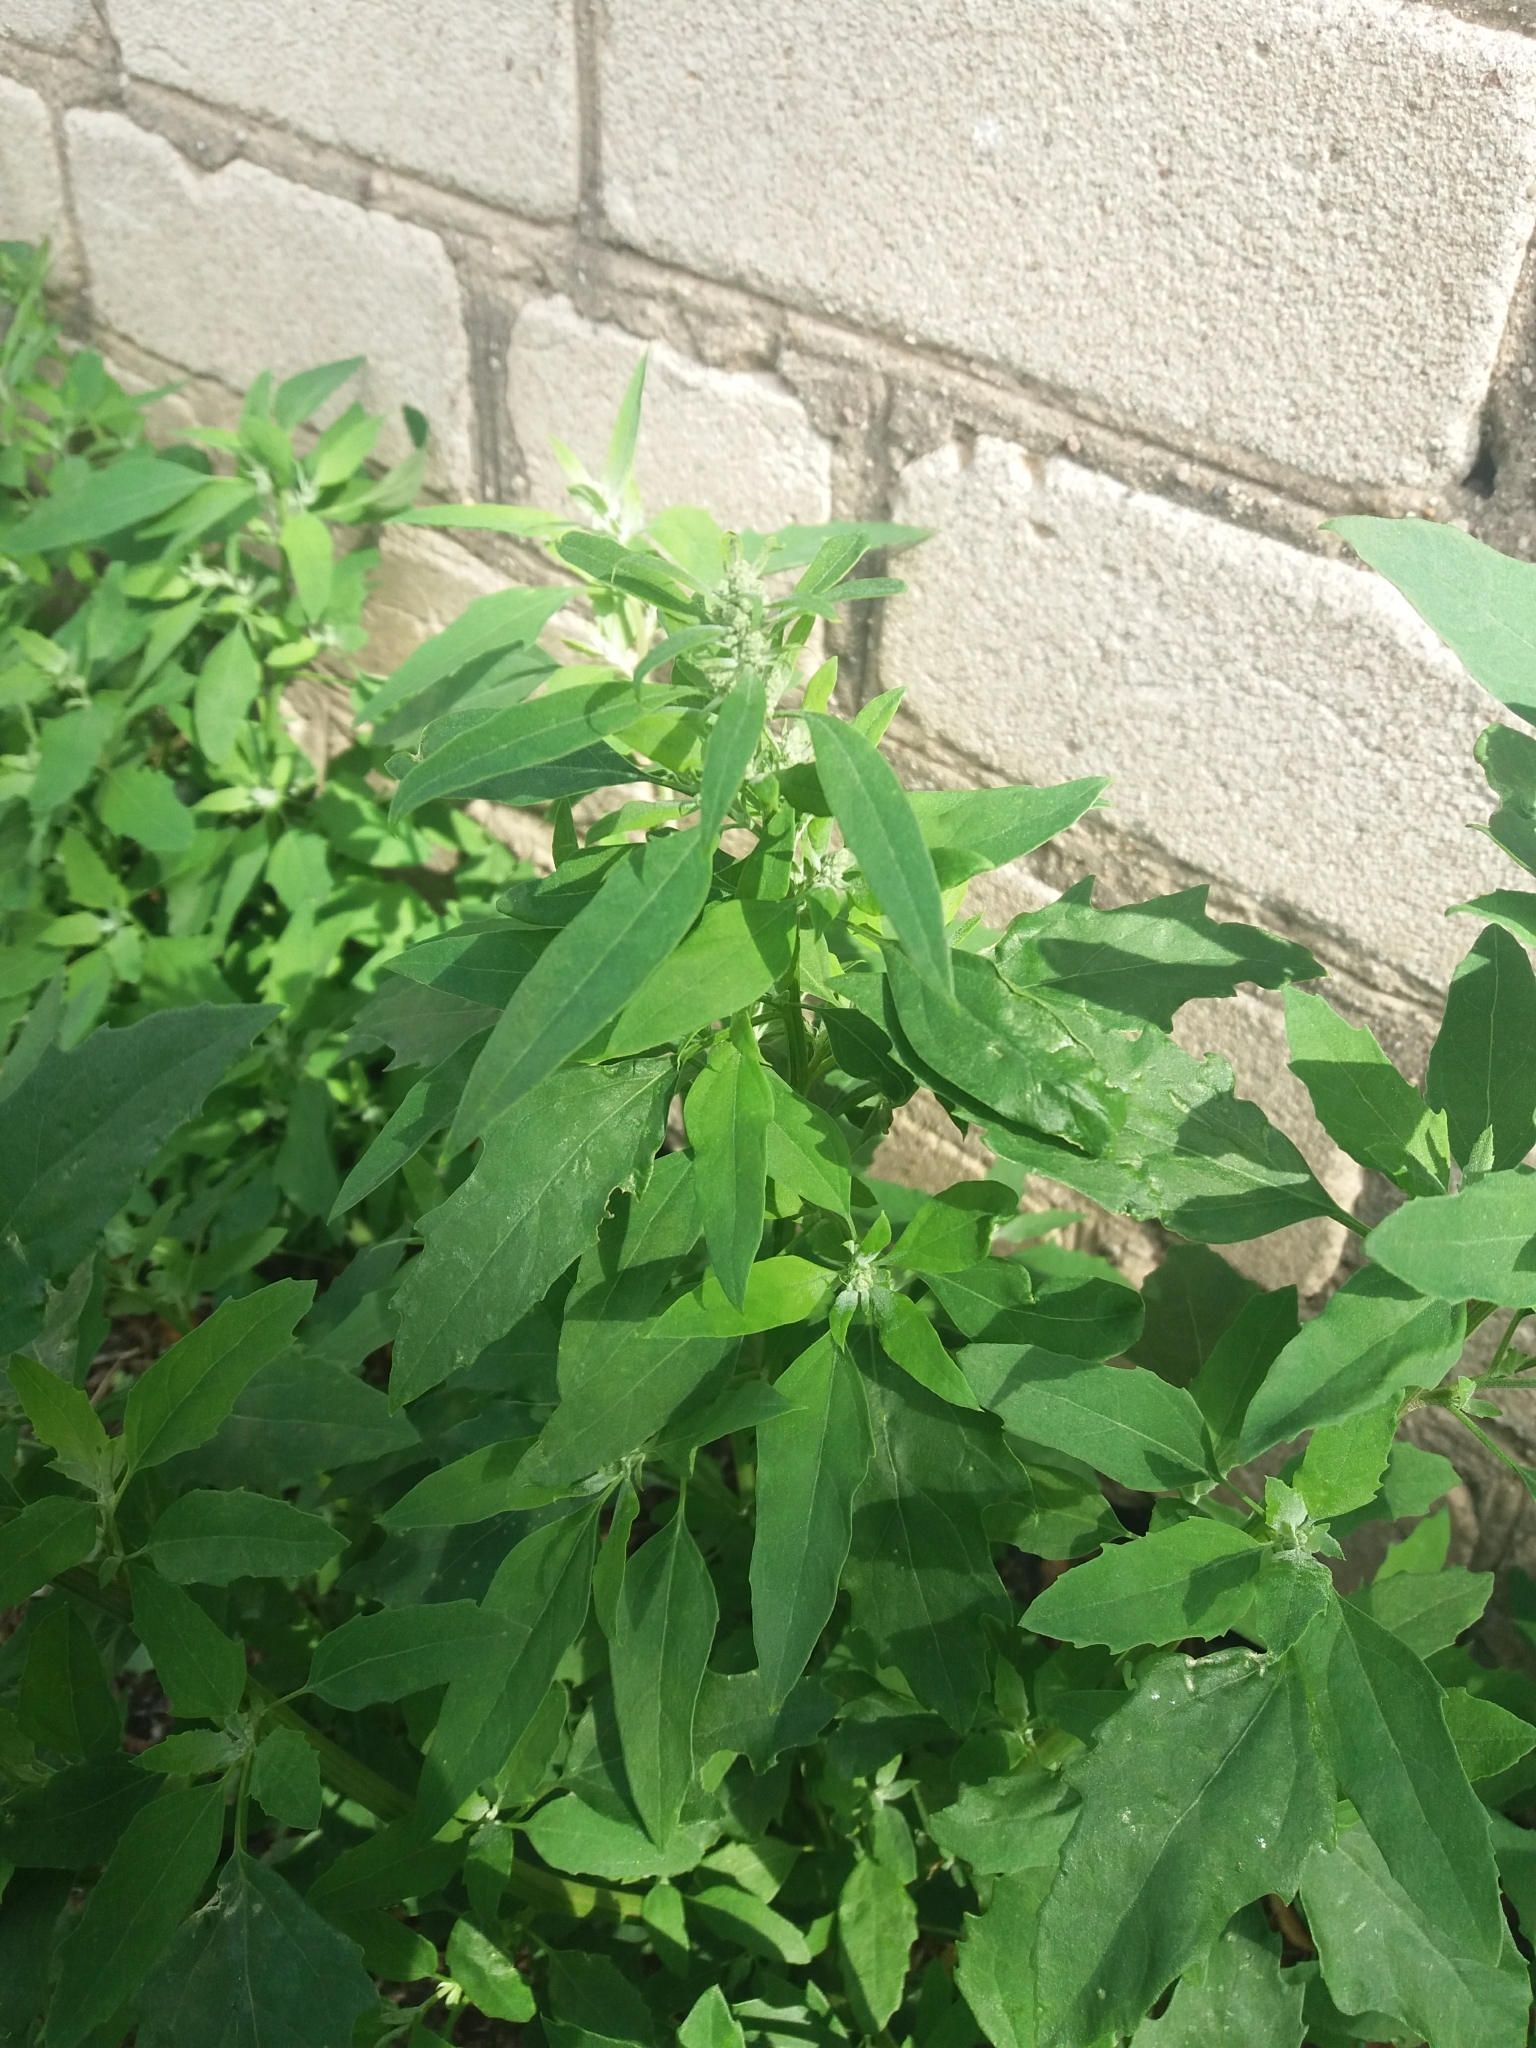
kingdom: Plantae
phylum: Tracheophyta
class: Magnoliopsida
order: Caryophyllales
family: Amaranthaceae
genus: Chenopodium
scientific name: Chenopodium album
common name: Fat-hen
